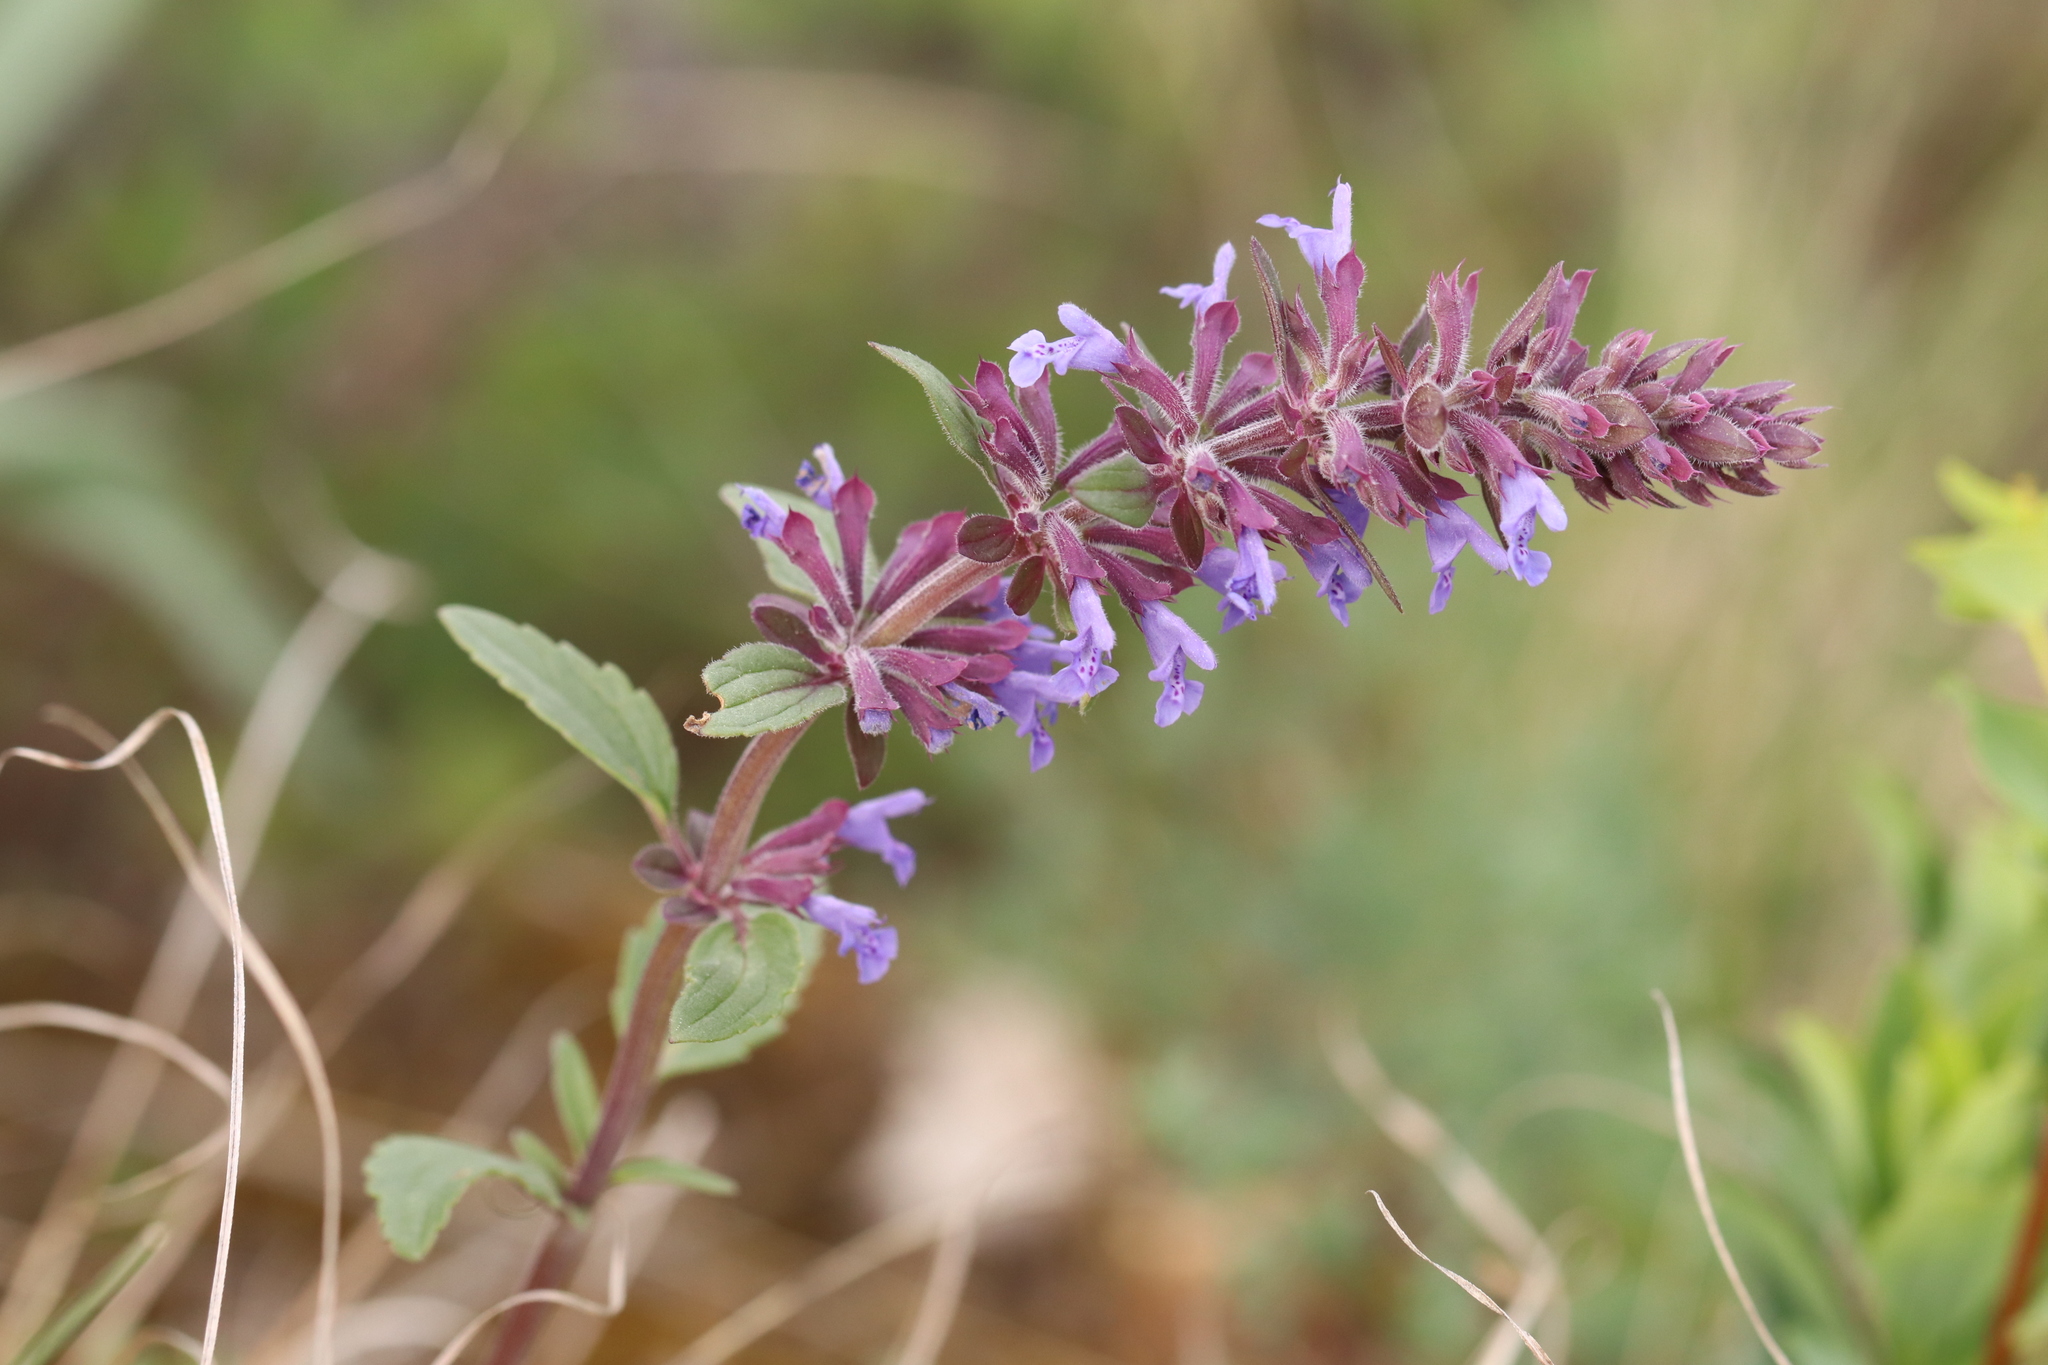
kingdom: Plantae
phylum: Tracheophyta
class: Magnoliopsida
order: Lamiales
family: Lamiaceae
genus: Dracocephalum
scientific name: Dracocephalum nutans
